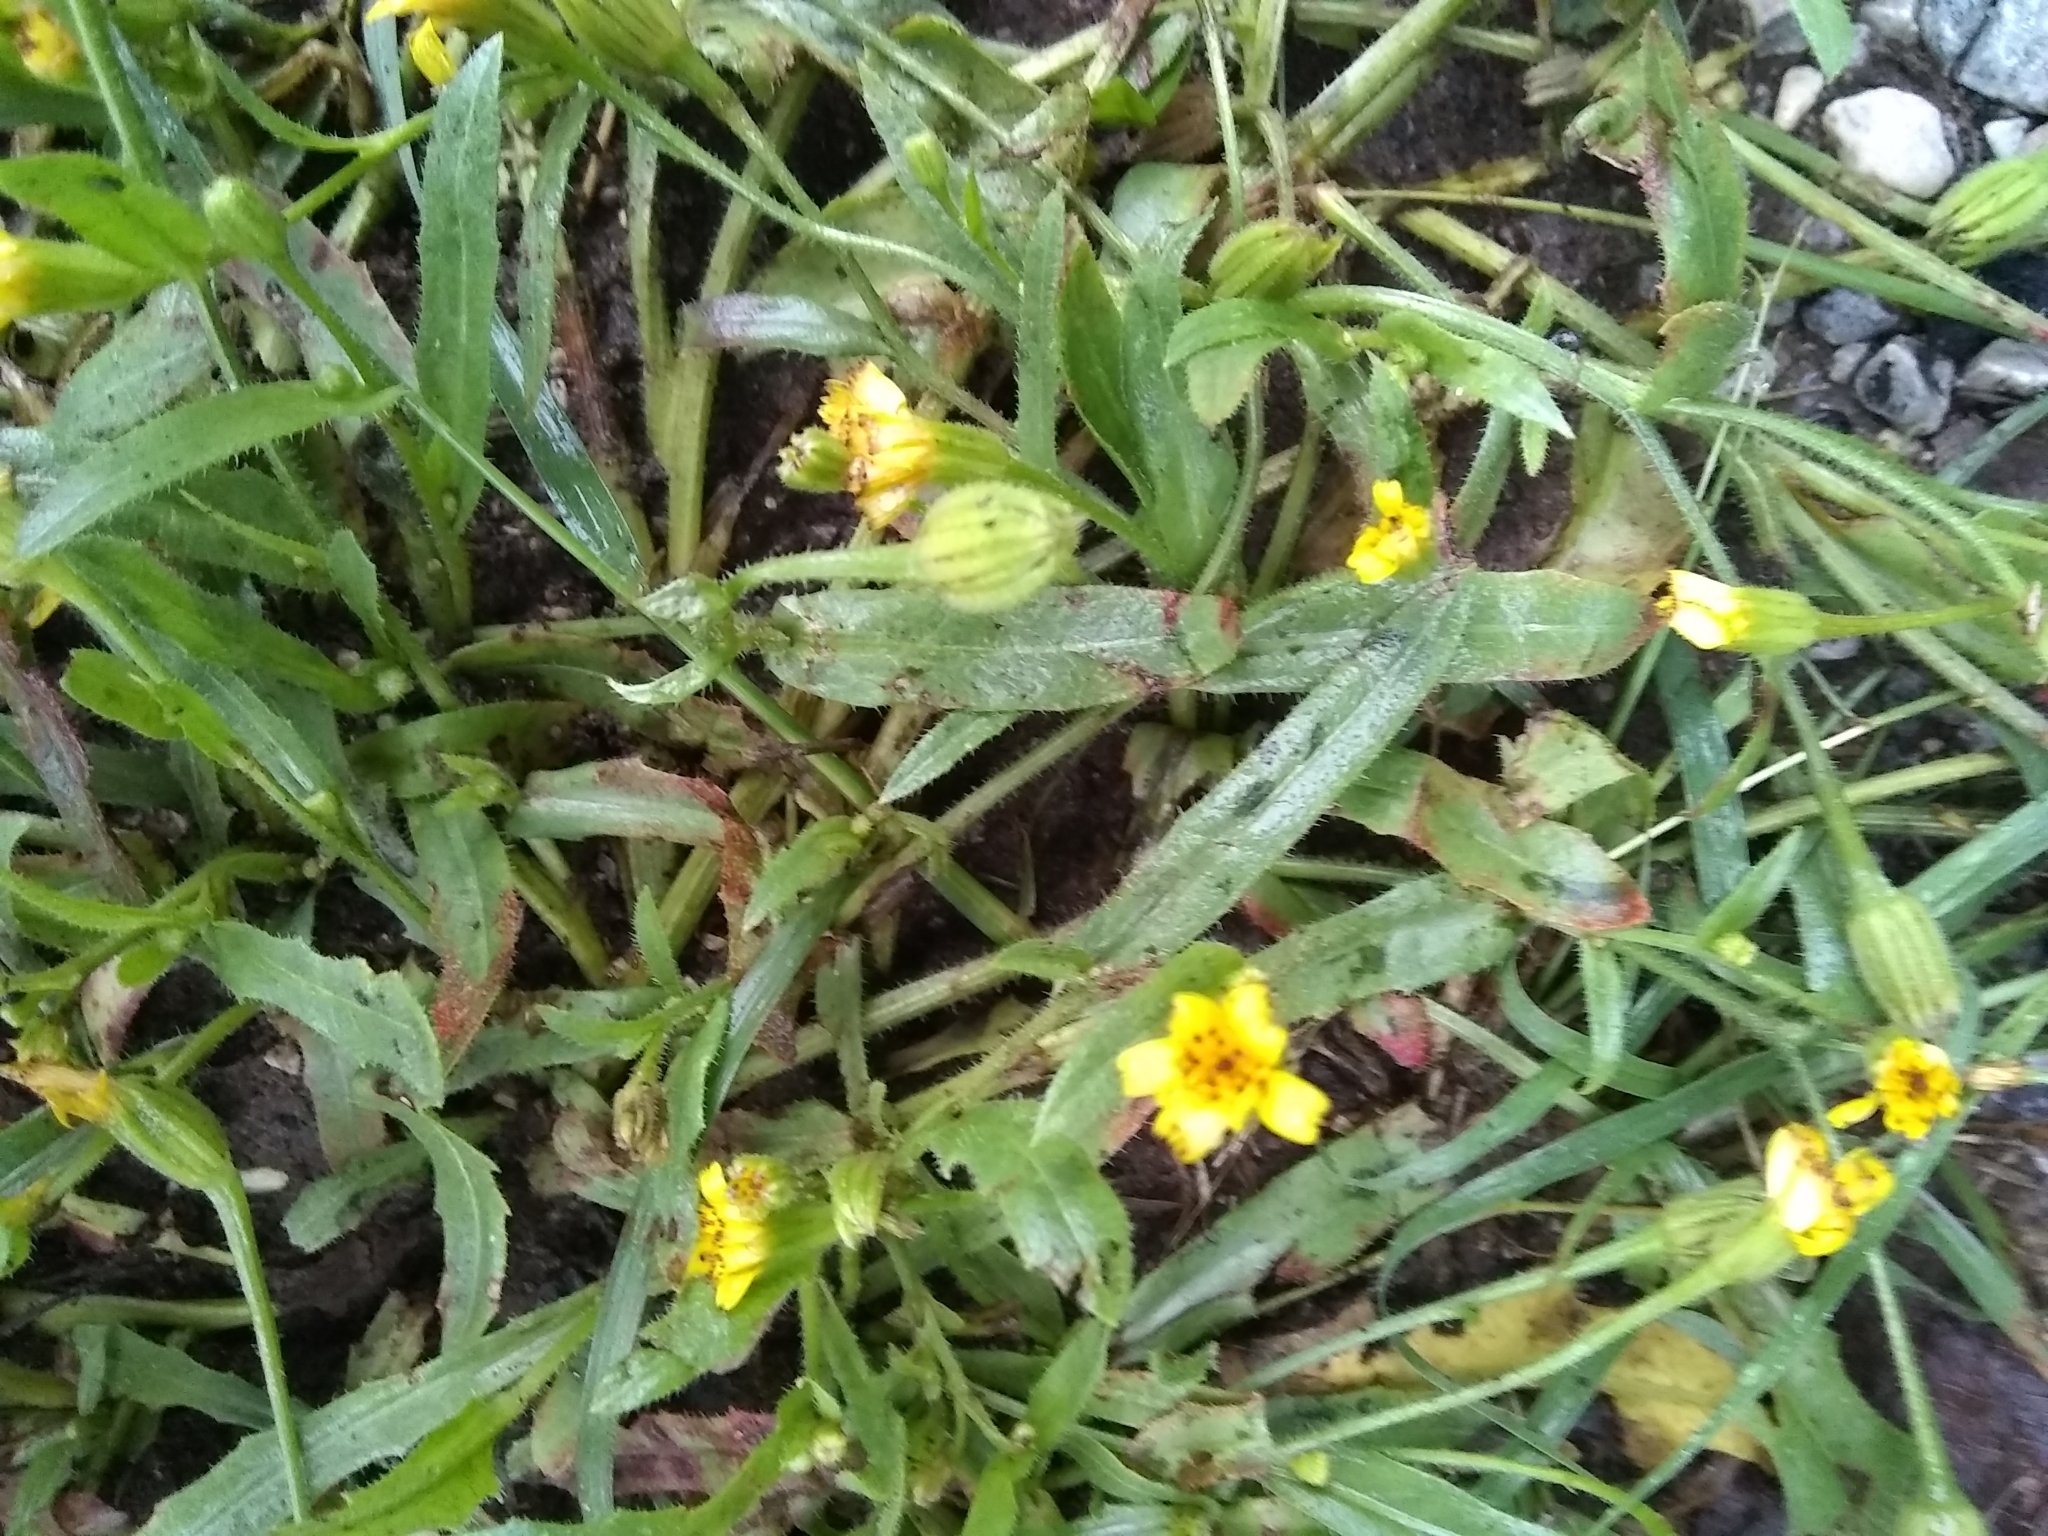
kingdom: Plantae
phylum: Tracheophyta
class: Magnoliopsida
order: Asterales
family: Asteraceae
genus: Hedypnois
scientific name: Hedypnois rhagadioloides
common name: Cretan weed
